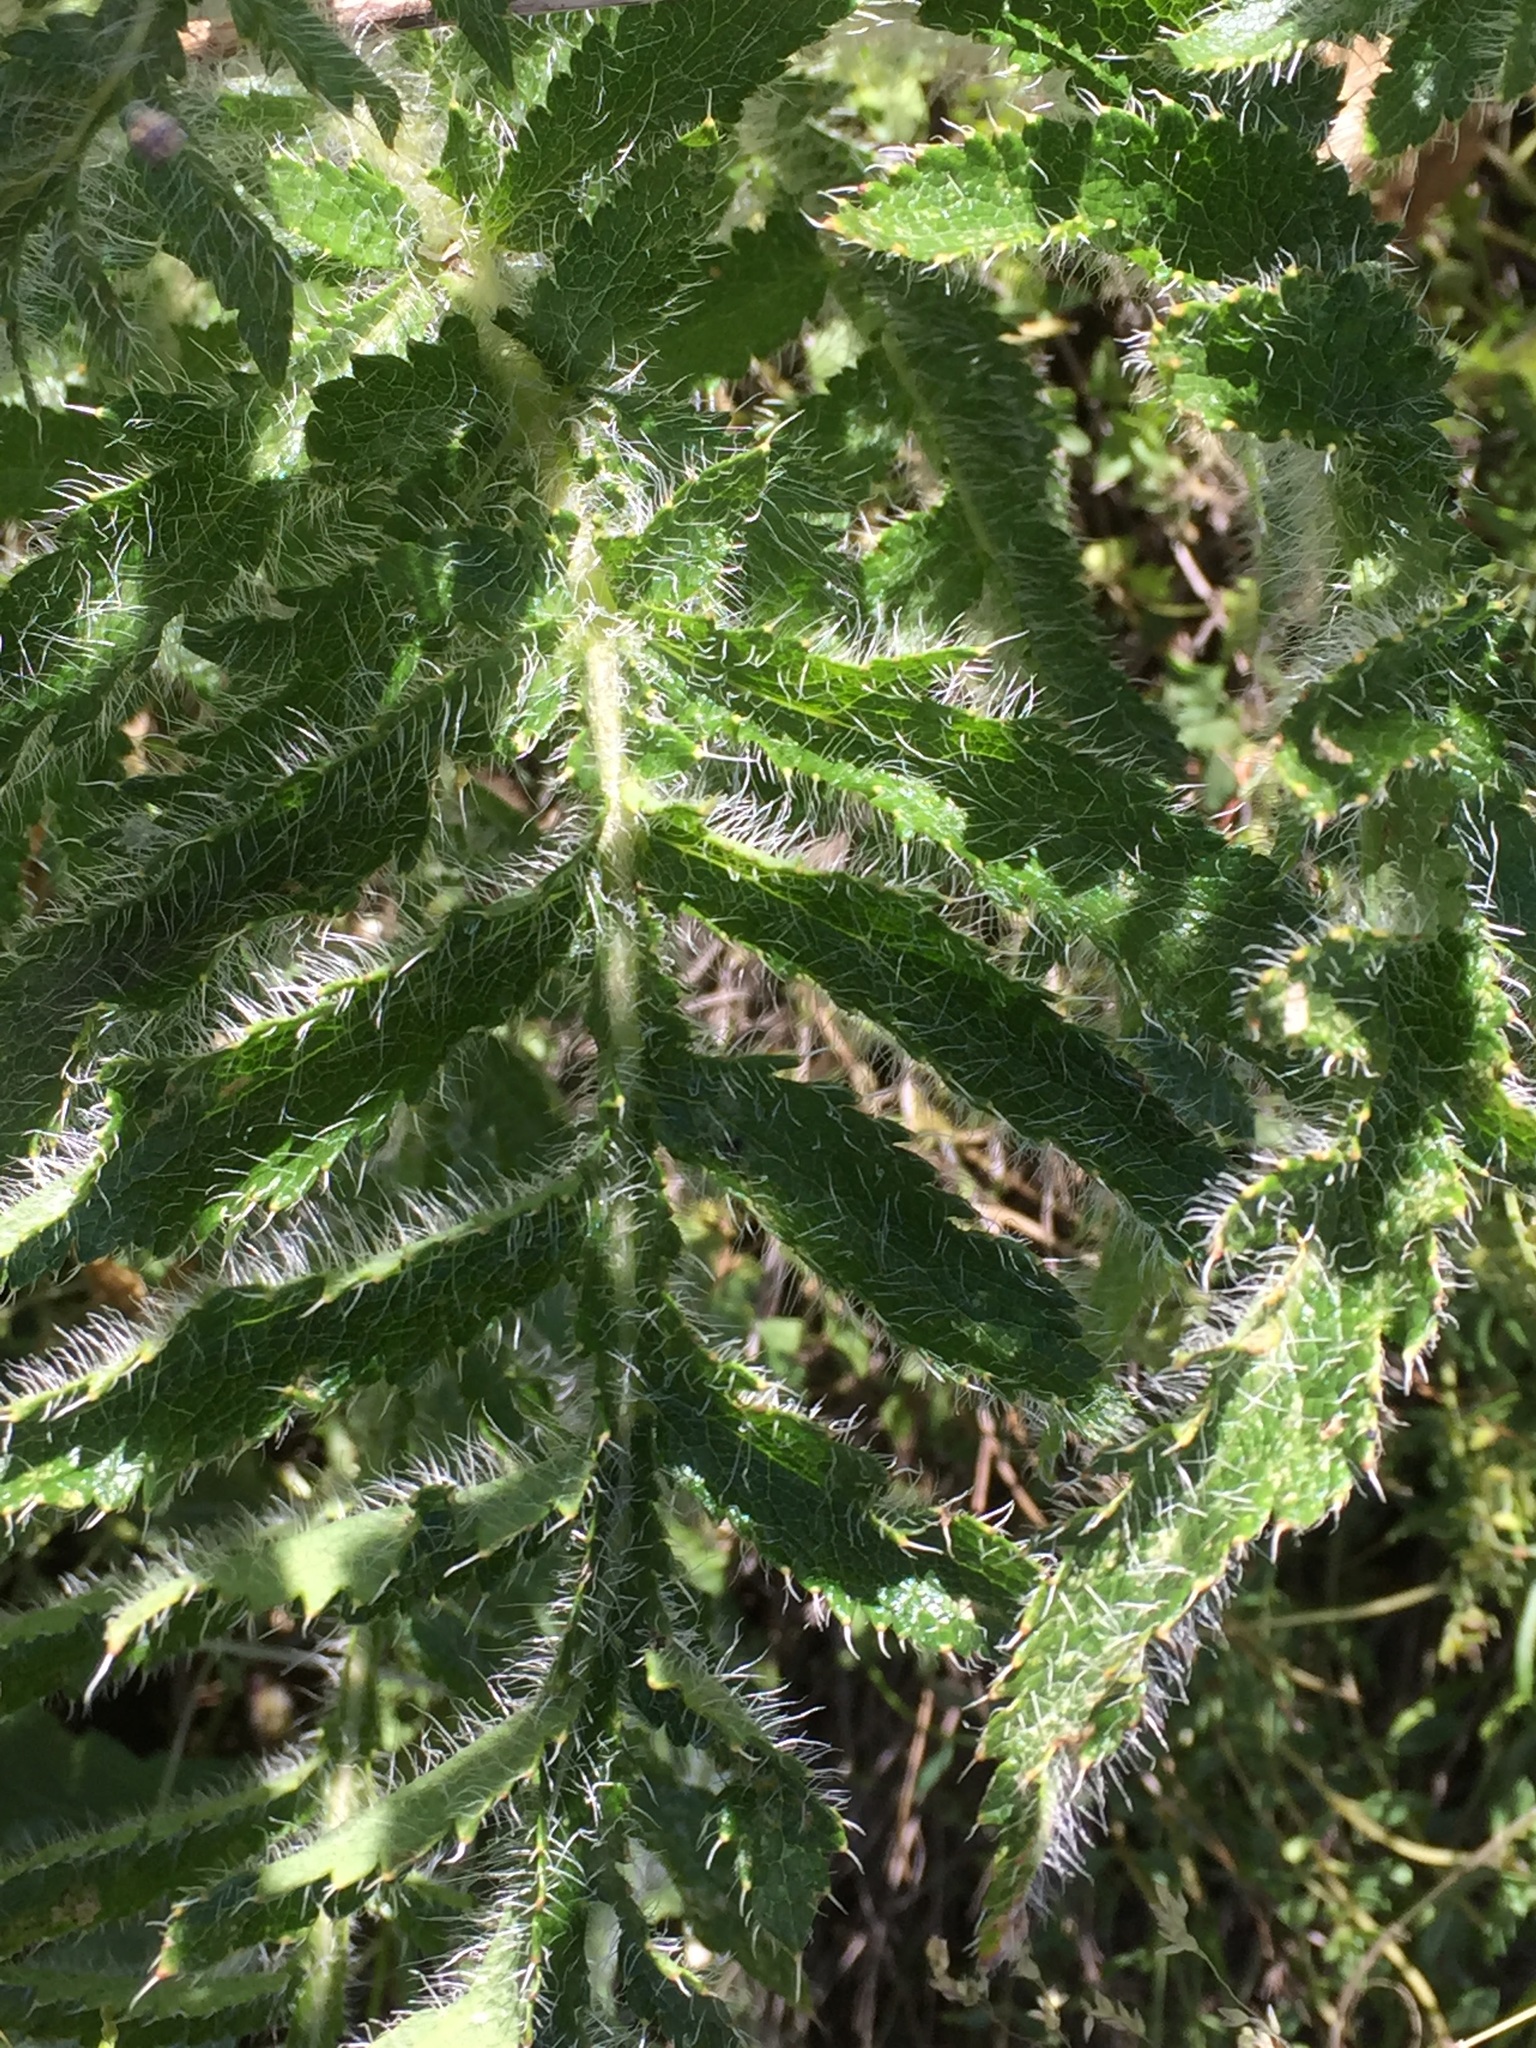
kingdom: Plantae
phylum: Tracheophyta
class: Magnoliopsida
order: Ranunculales
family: Papaveraceae
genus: Papaver
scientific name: Papaver orientale
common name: Oriental poppy
